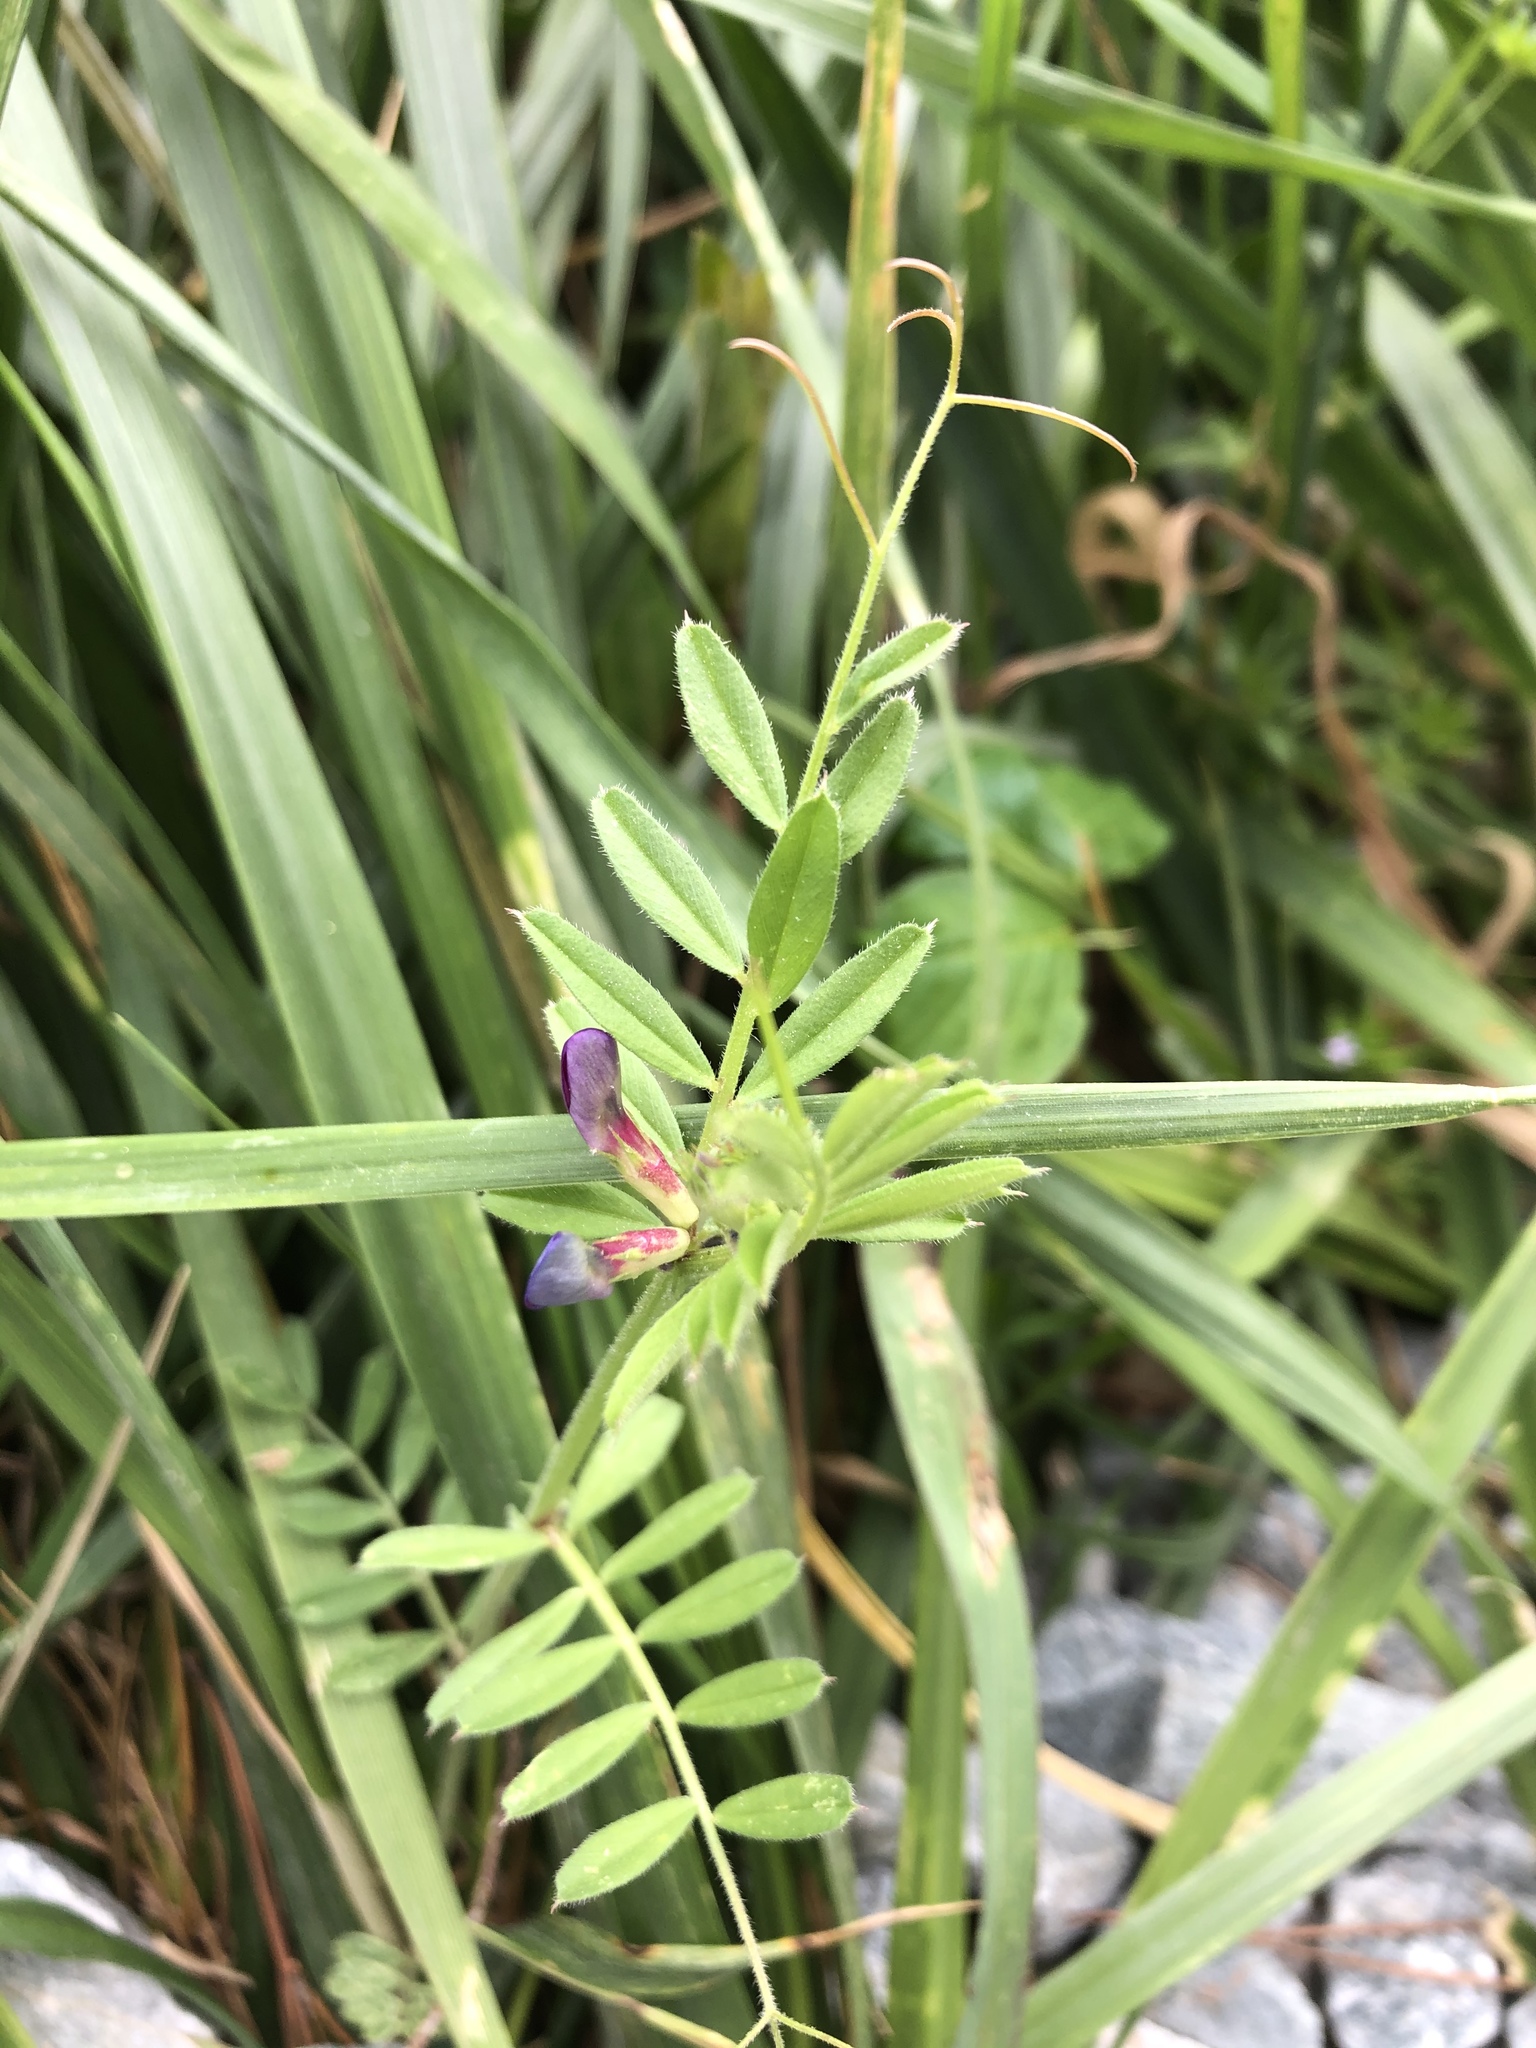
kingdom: Plantae
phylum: Tracheophyta
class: Magnoliopsida
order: Fabales
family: Fabaceae
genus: Vicia
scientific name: Vicia sativa
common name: Garden vetch
